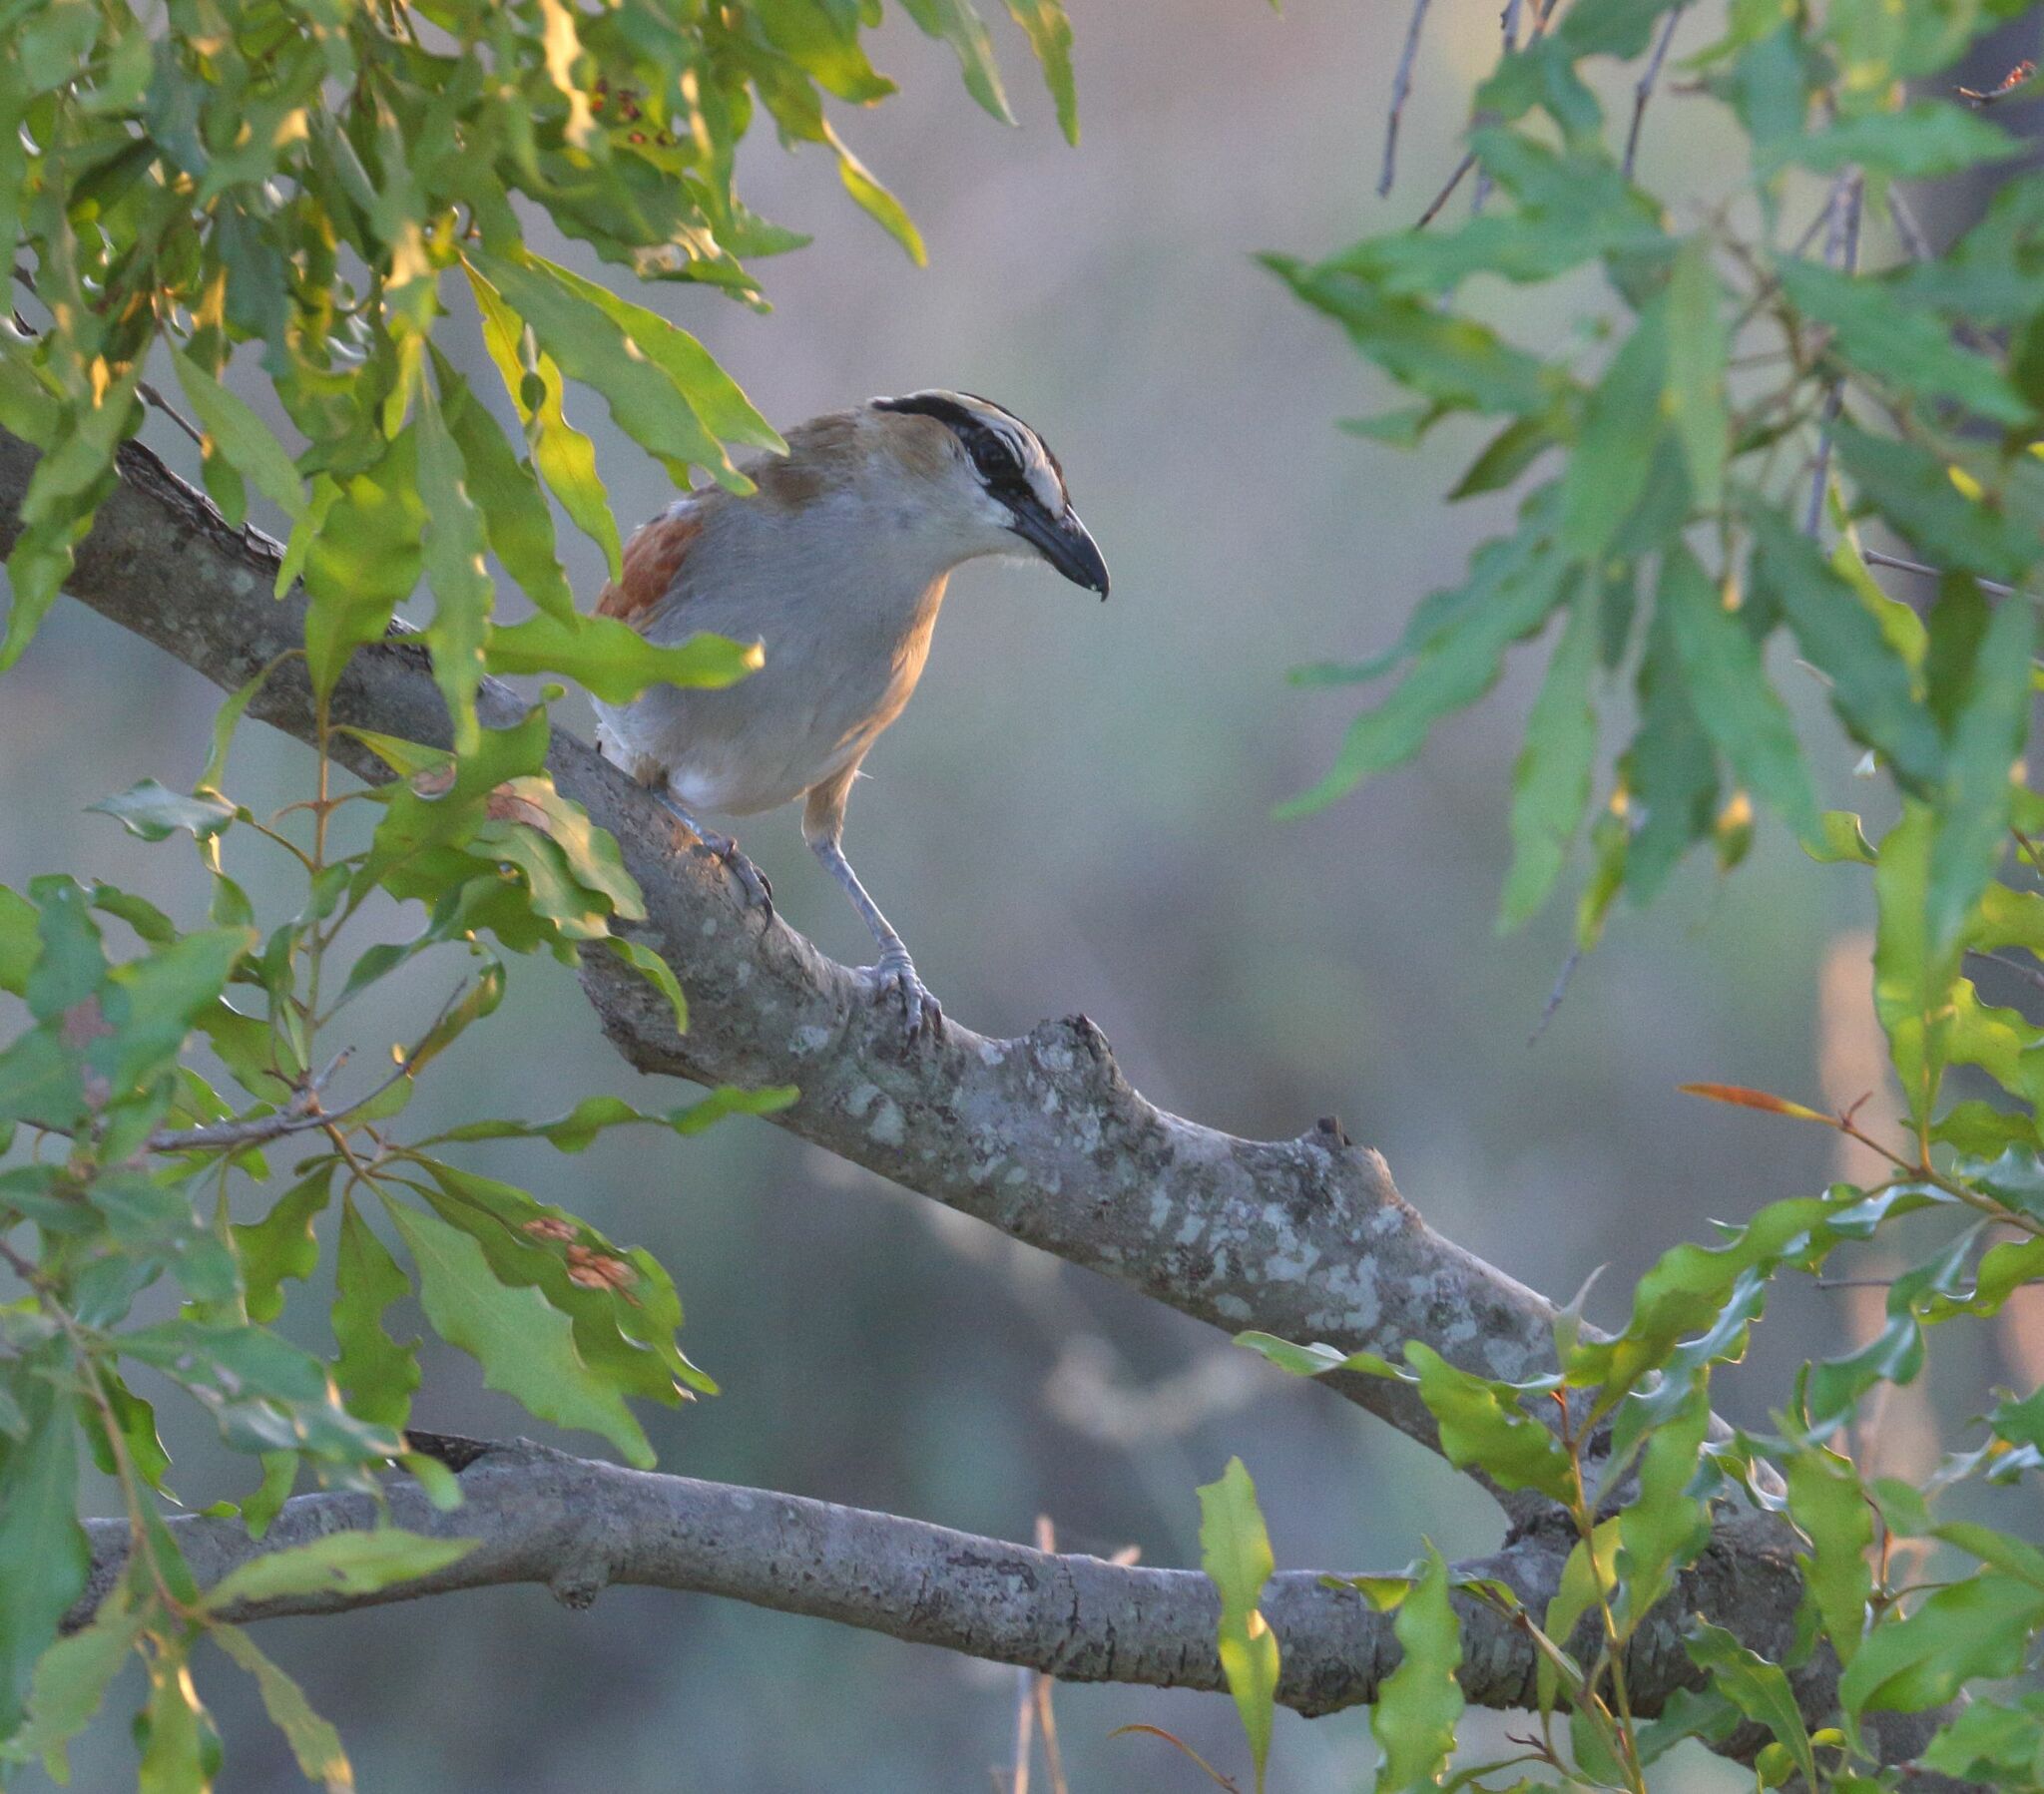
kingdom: Animalia
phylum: Chordata
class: Aves
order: Passeriformes
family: Malaconotidae
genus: Tchagra
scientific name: Tchagra senegalus
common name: Black-crowned tchagra
